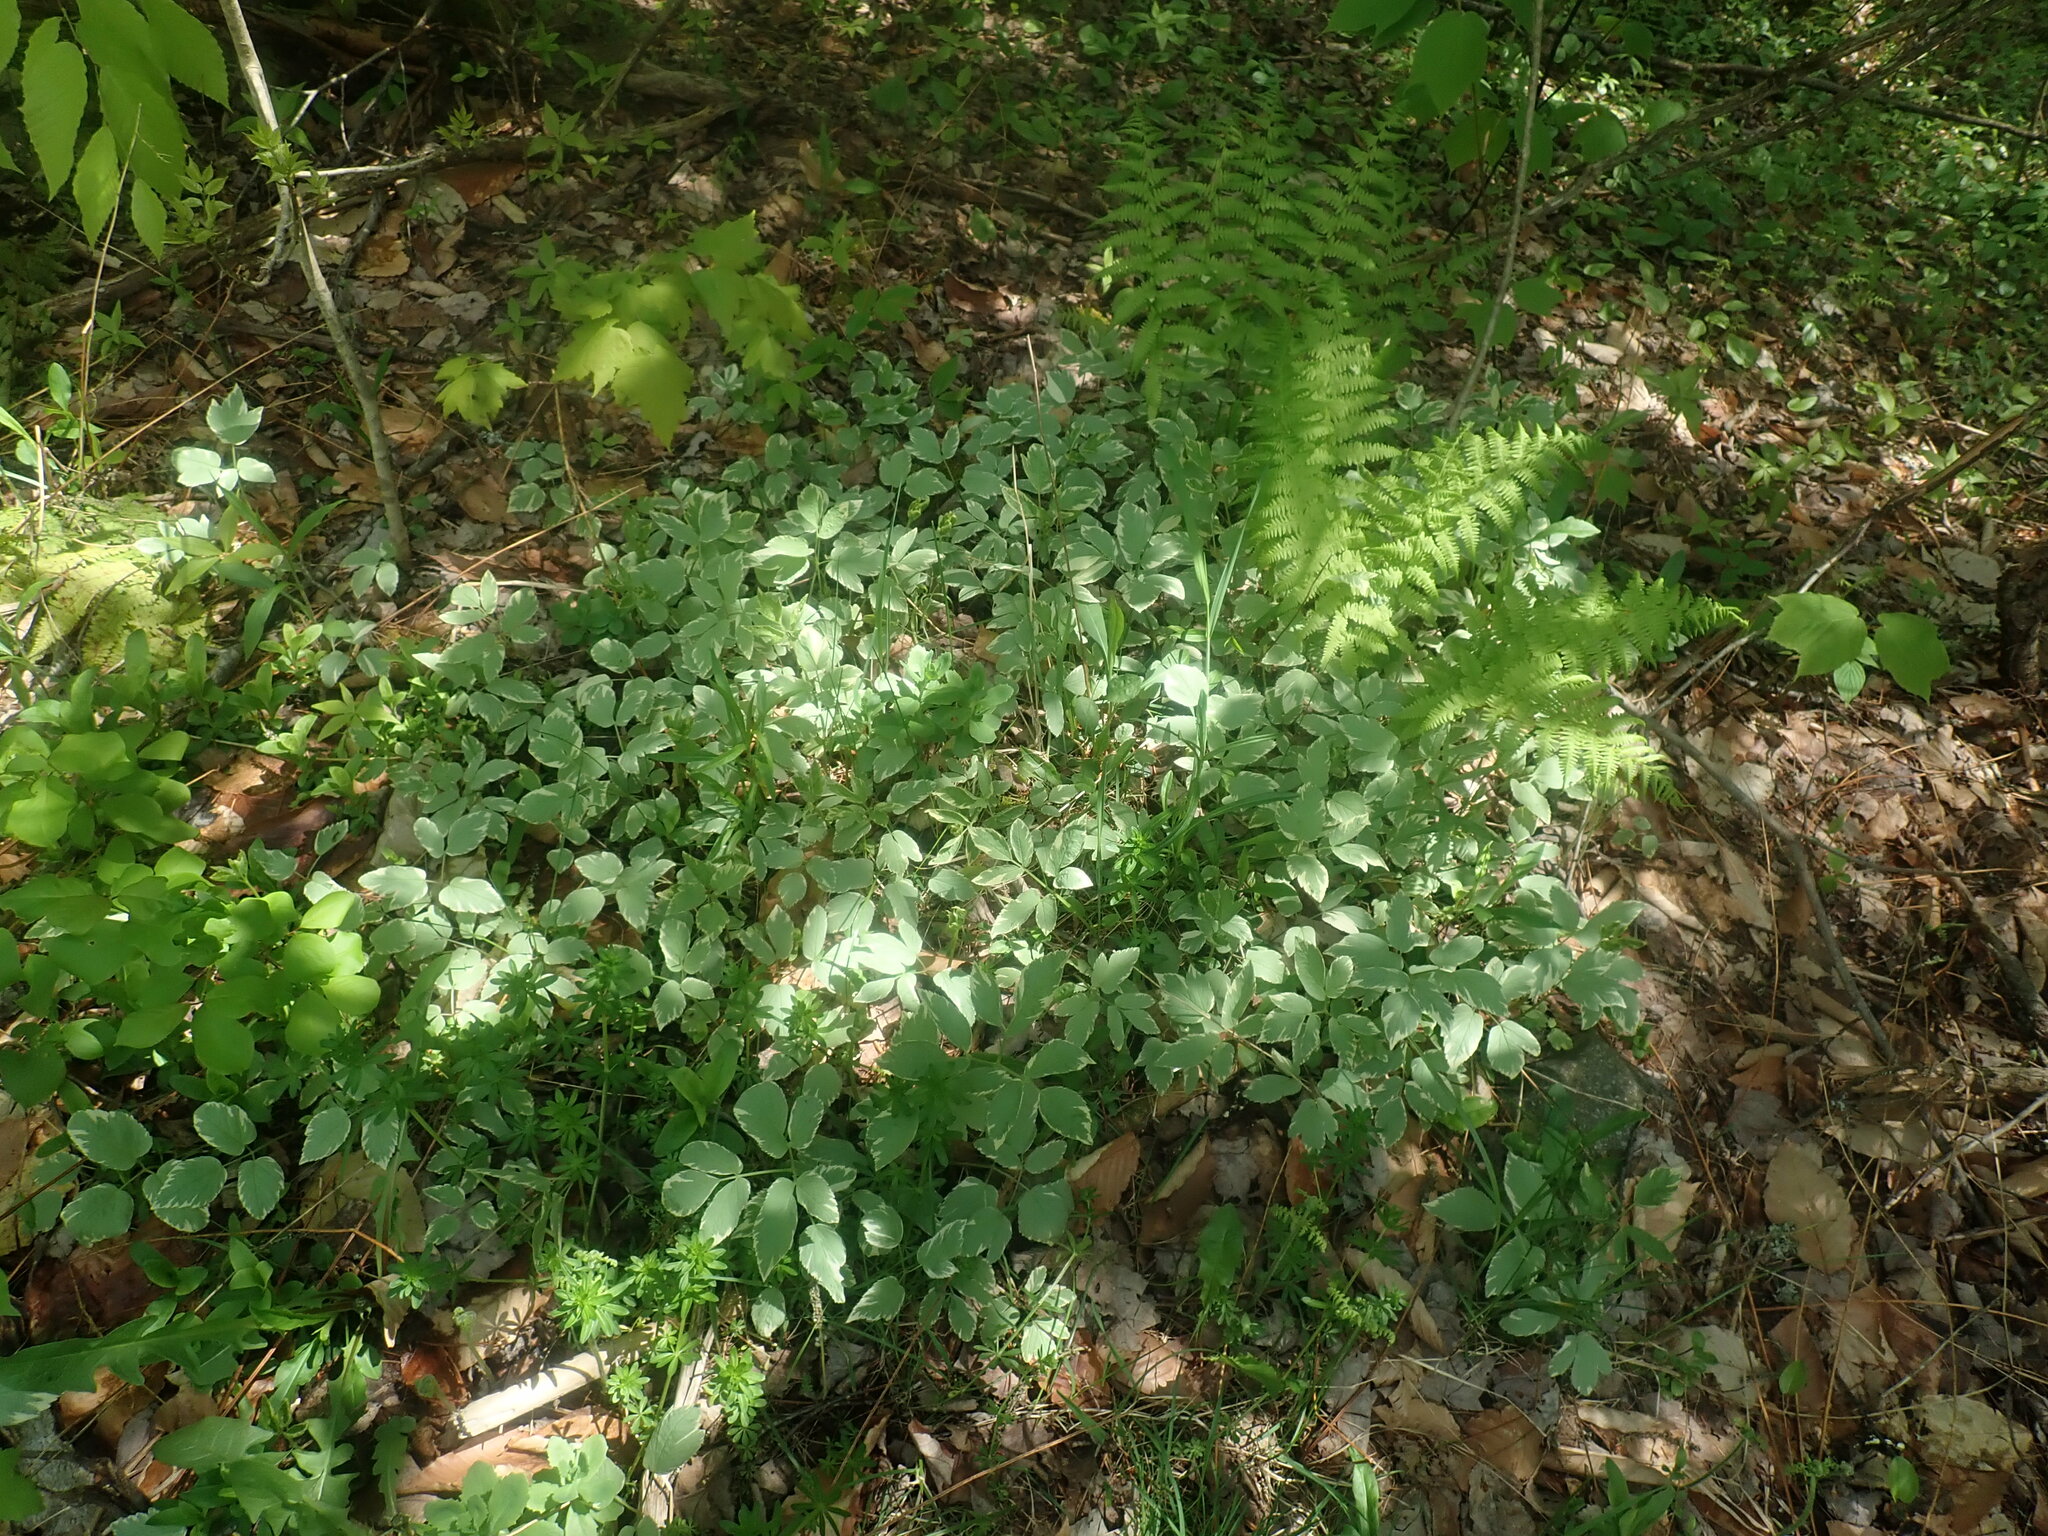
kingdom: Plantae
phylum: Tracheophyta
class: Magnoliopsida
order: Apiales
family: Apiaceae
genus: Aegopodium
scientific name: Aegopodium podagraria
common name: Ground-elder
